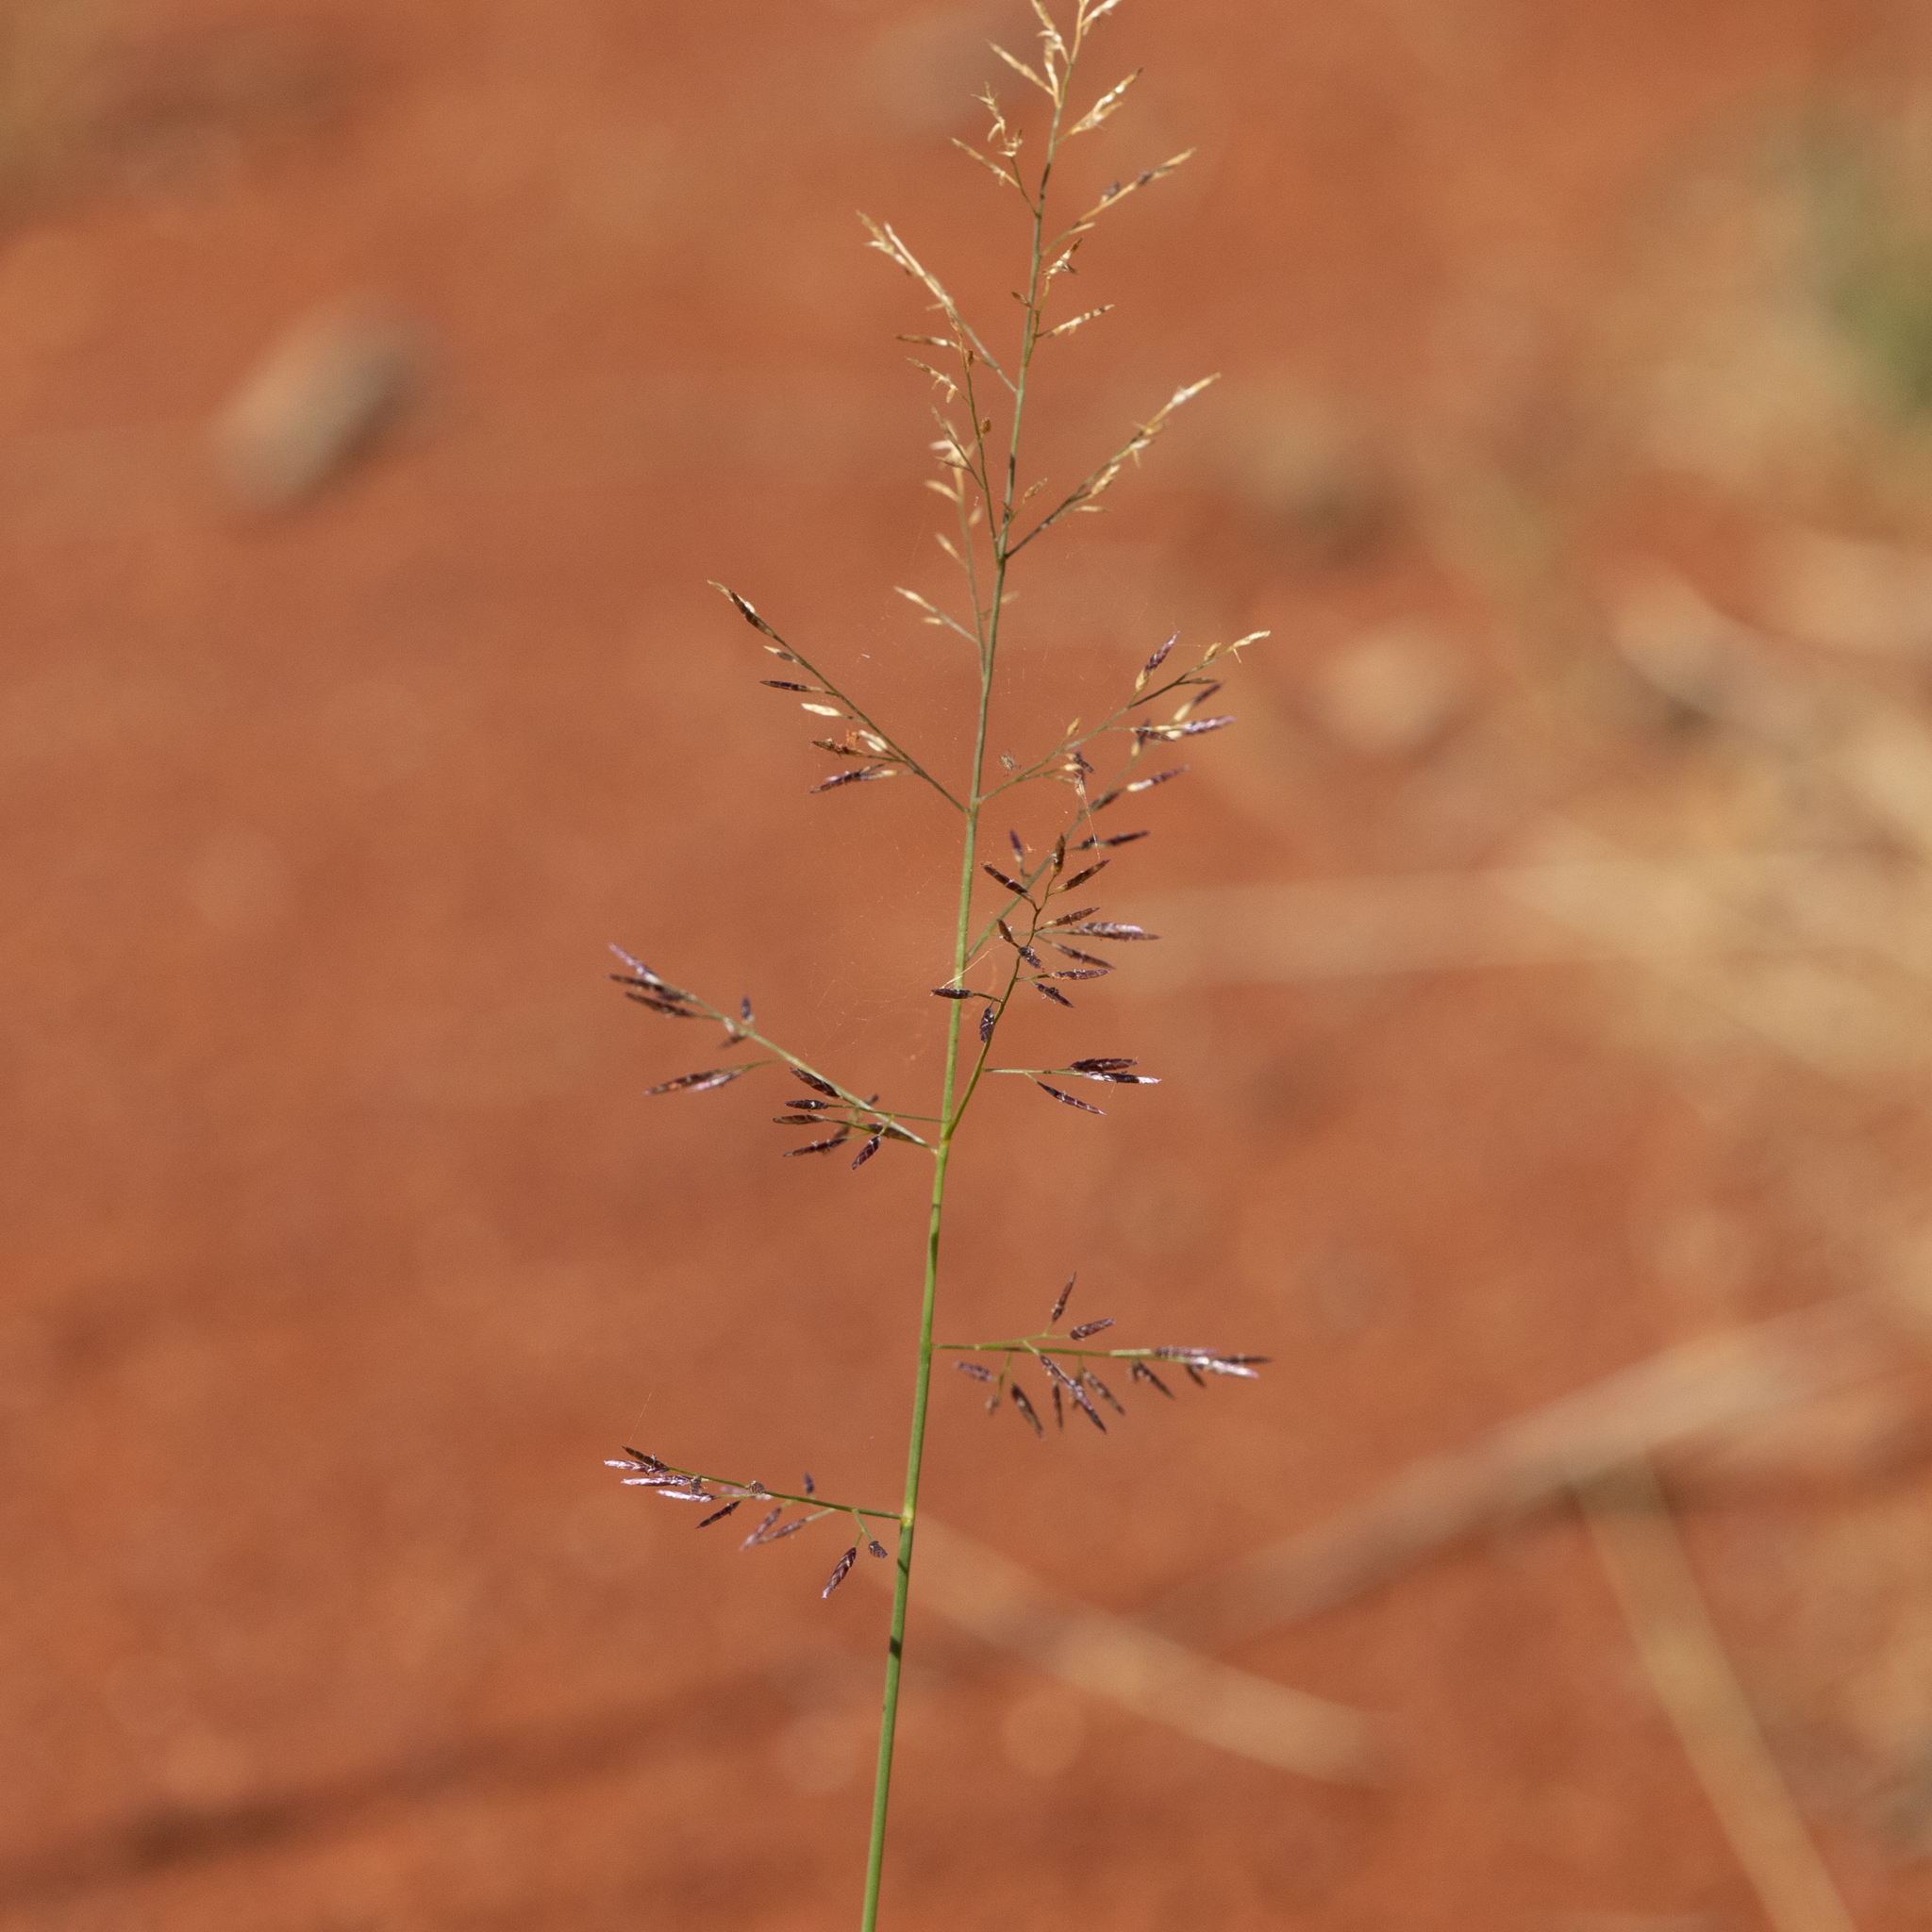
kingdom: Plantae
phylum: Tracheophyta
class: Liliopsida
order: Poales
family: Poaceae
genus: Eragrostis
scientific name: Eragrostis lacunaria
